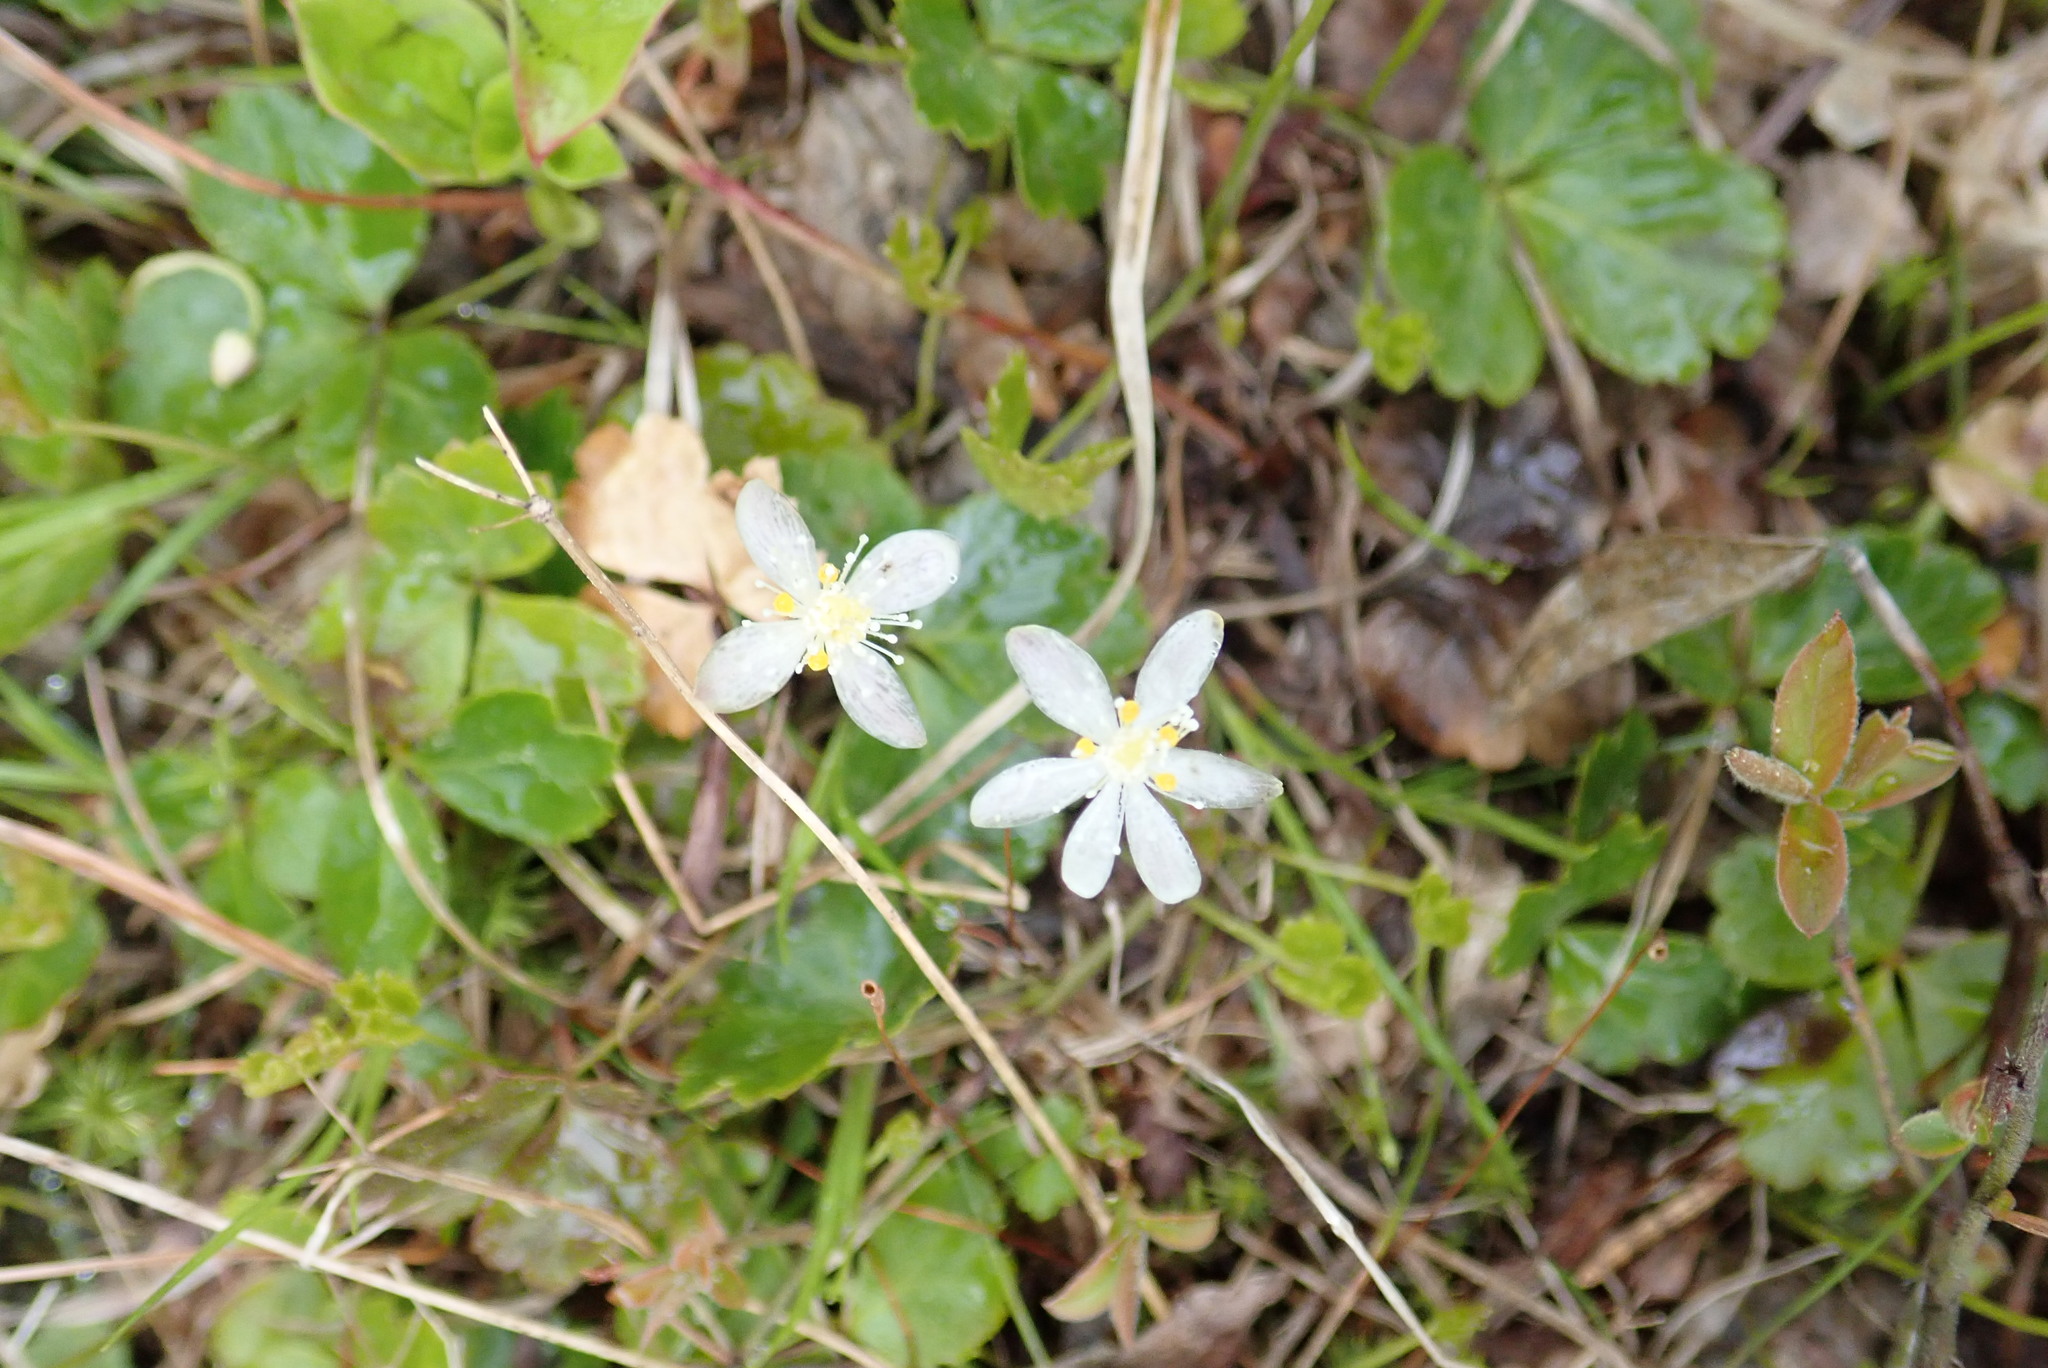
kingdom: Plantae
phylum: Tracheophyta
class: Magnoliopsida
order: Ranunculales
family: Ranunculaceae
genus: Coptis
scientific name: Coptis trifolia
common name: Canker-root
